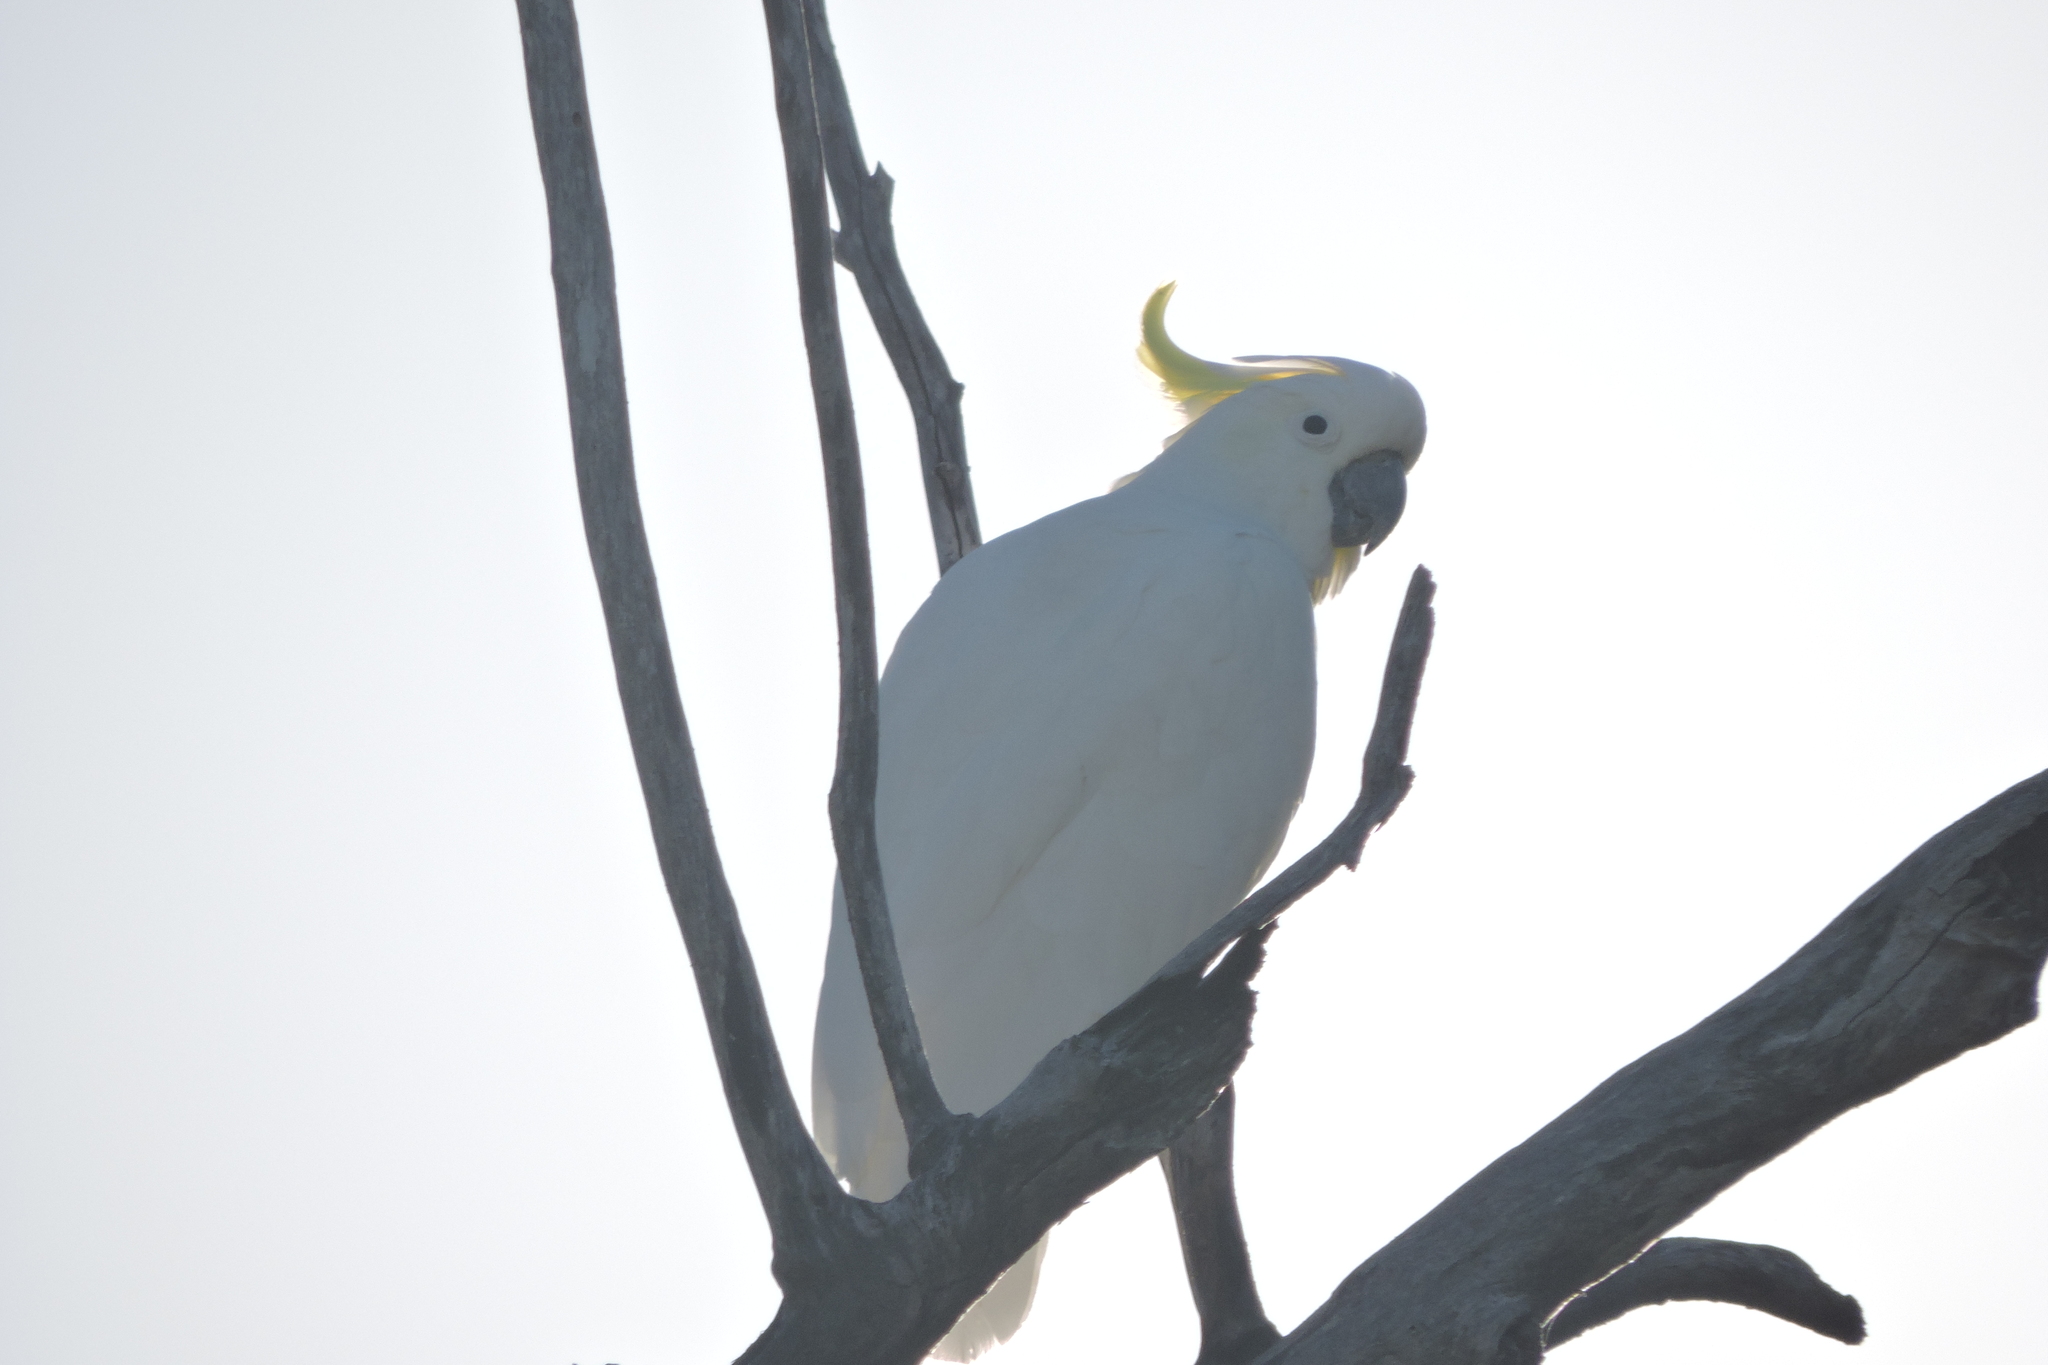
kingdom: Animalia
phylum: Chordata
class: Aves
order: Psittaciformes
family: Psittacidae
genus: Cacatua
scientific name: Cacatua galerita
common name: Sulphur-crested cockatoo
